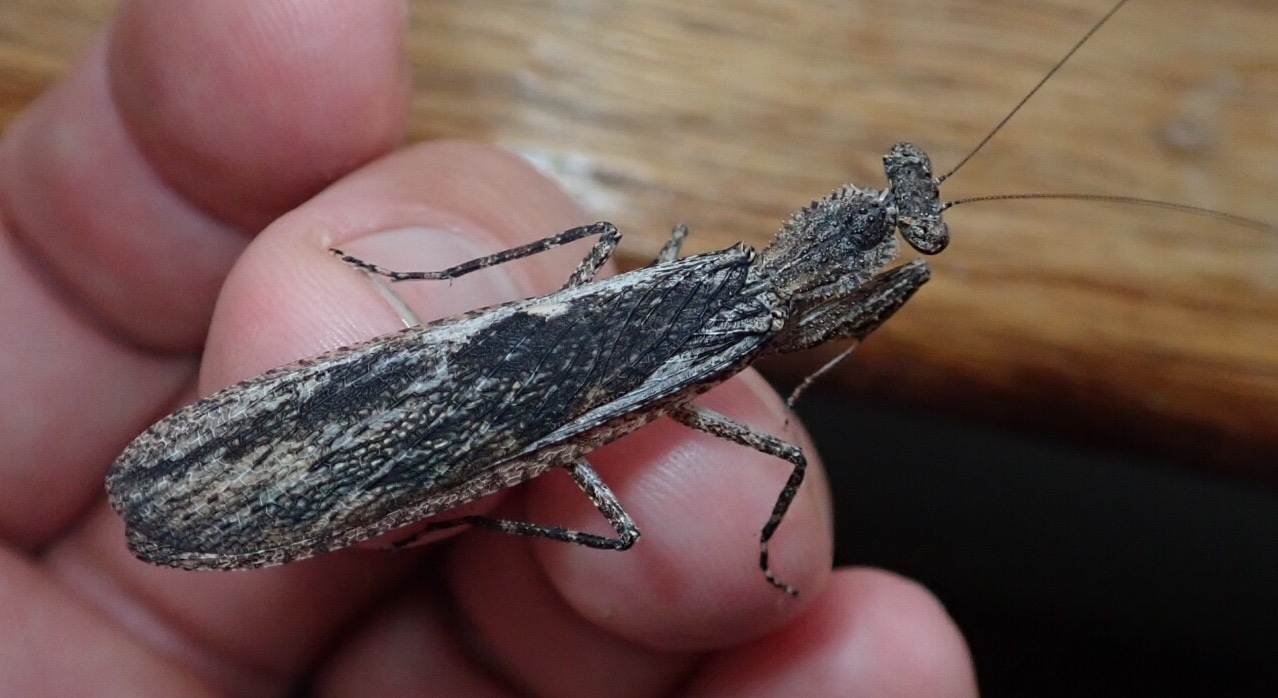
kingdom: Animalia
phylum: Arthropoda
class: Insecta
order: Mantodea
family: Dactylopterygidae
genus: Zouza
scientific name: Zouza radiosa
